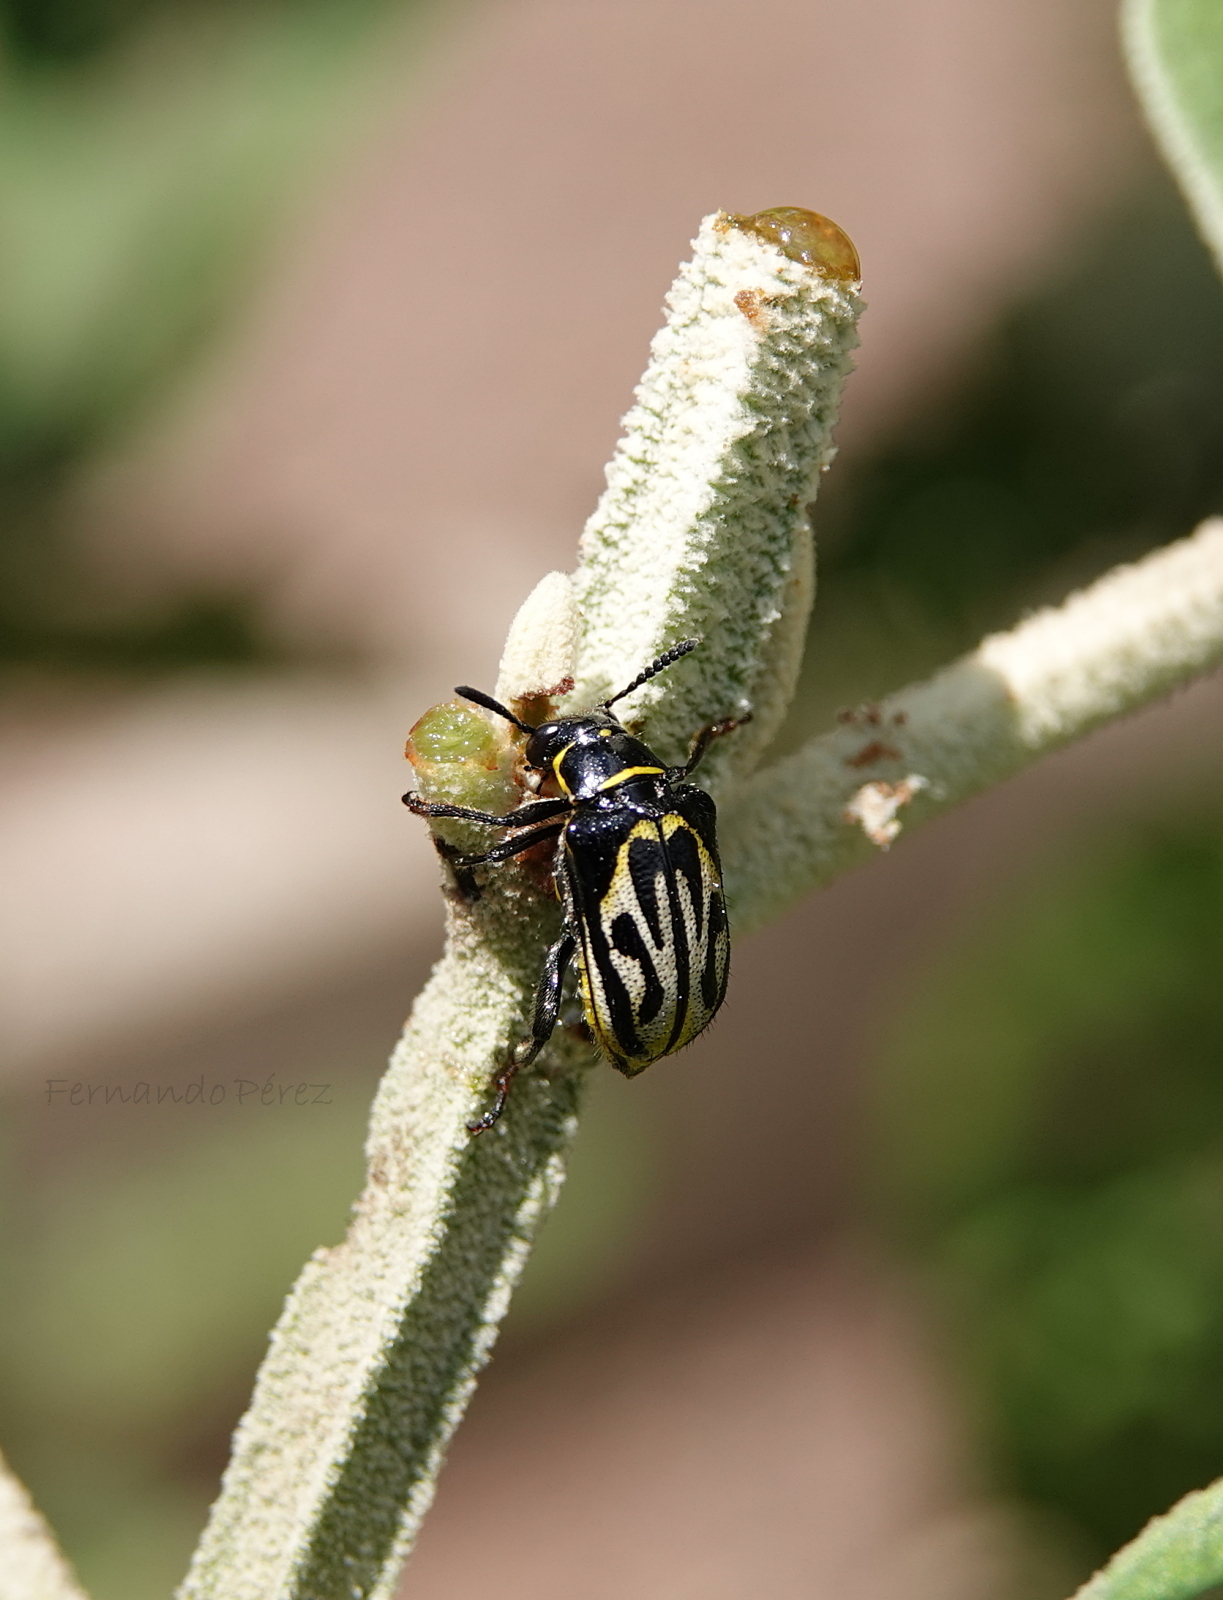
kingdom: Animalia
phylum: Arthropoda
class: Insecta
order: Coleoptera
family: Megalopodidae
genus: Mastostethus
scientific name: Mastostethus hieroglyphicus
